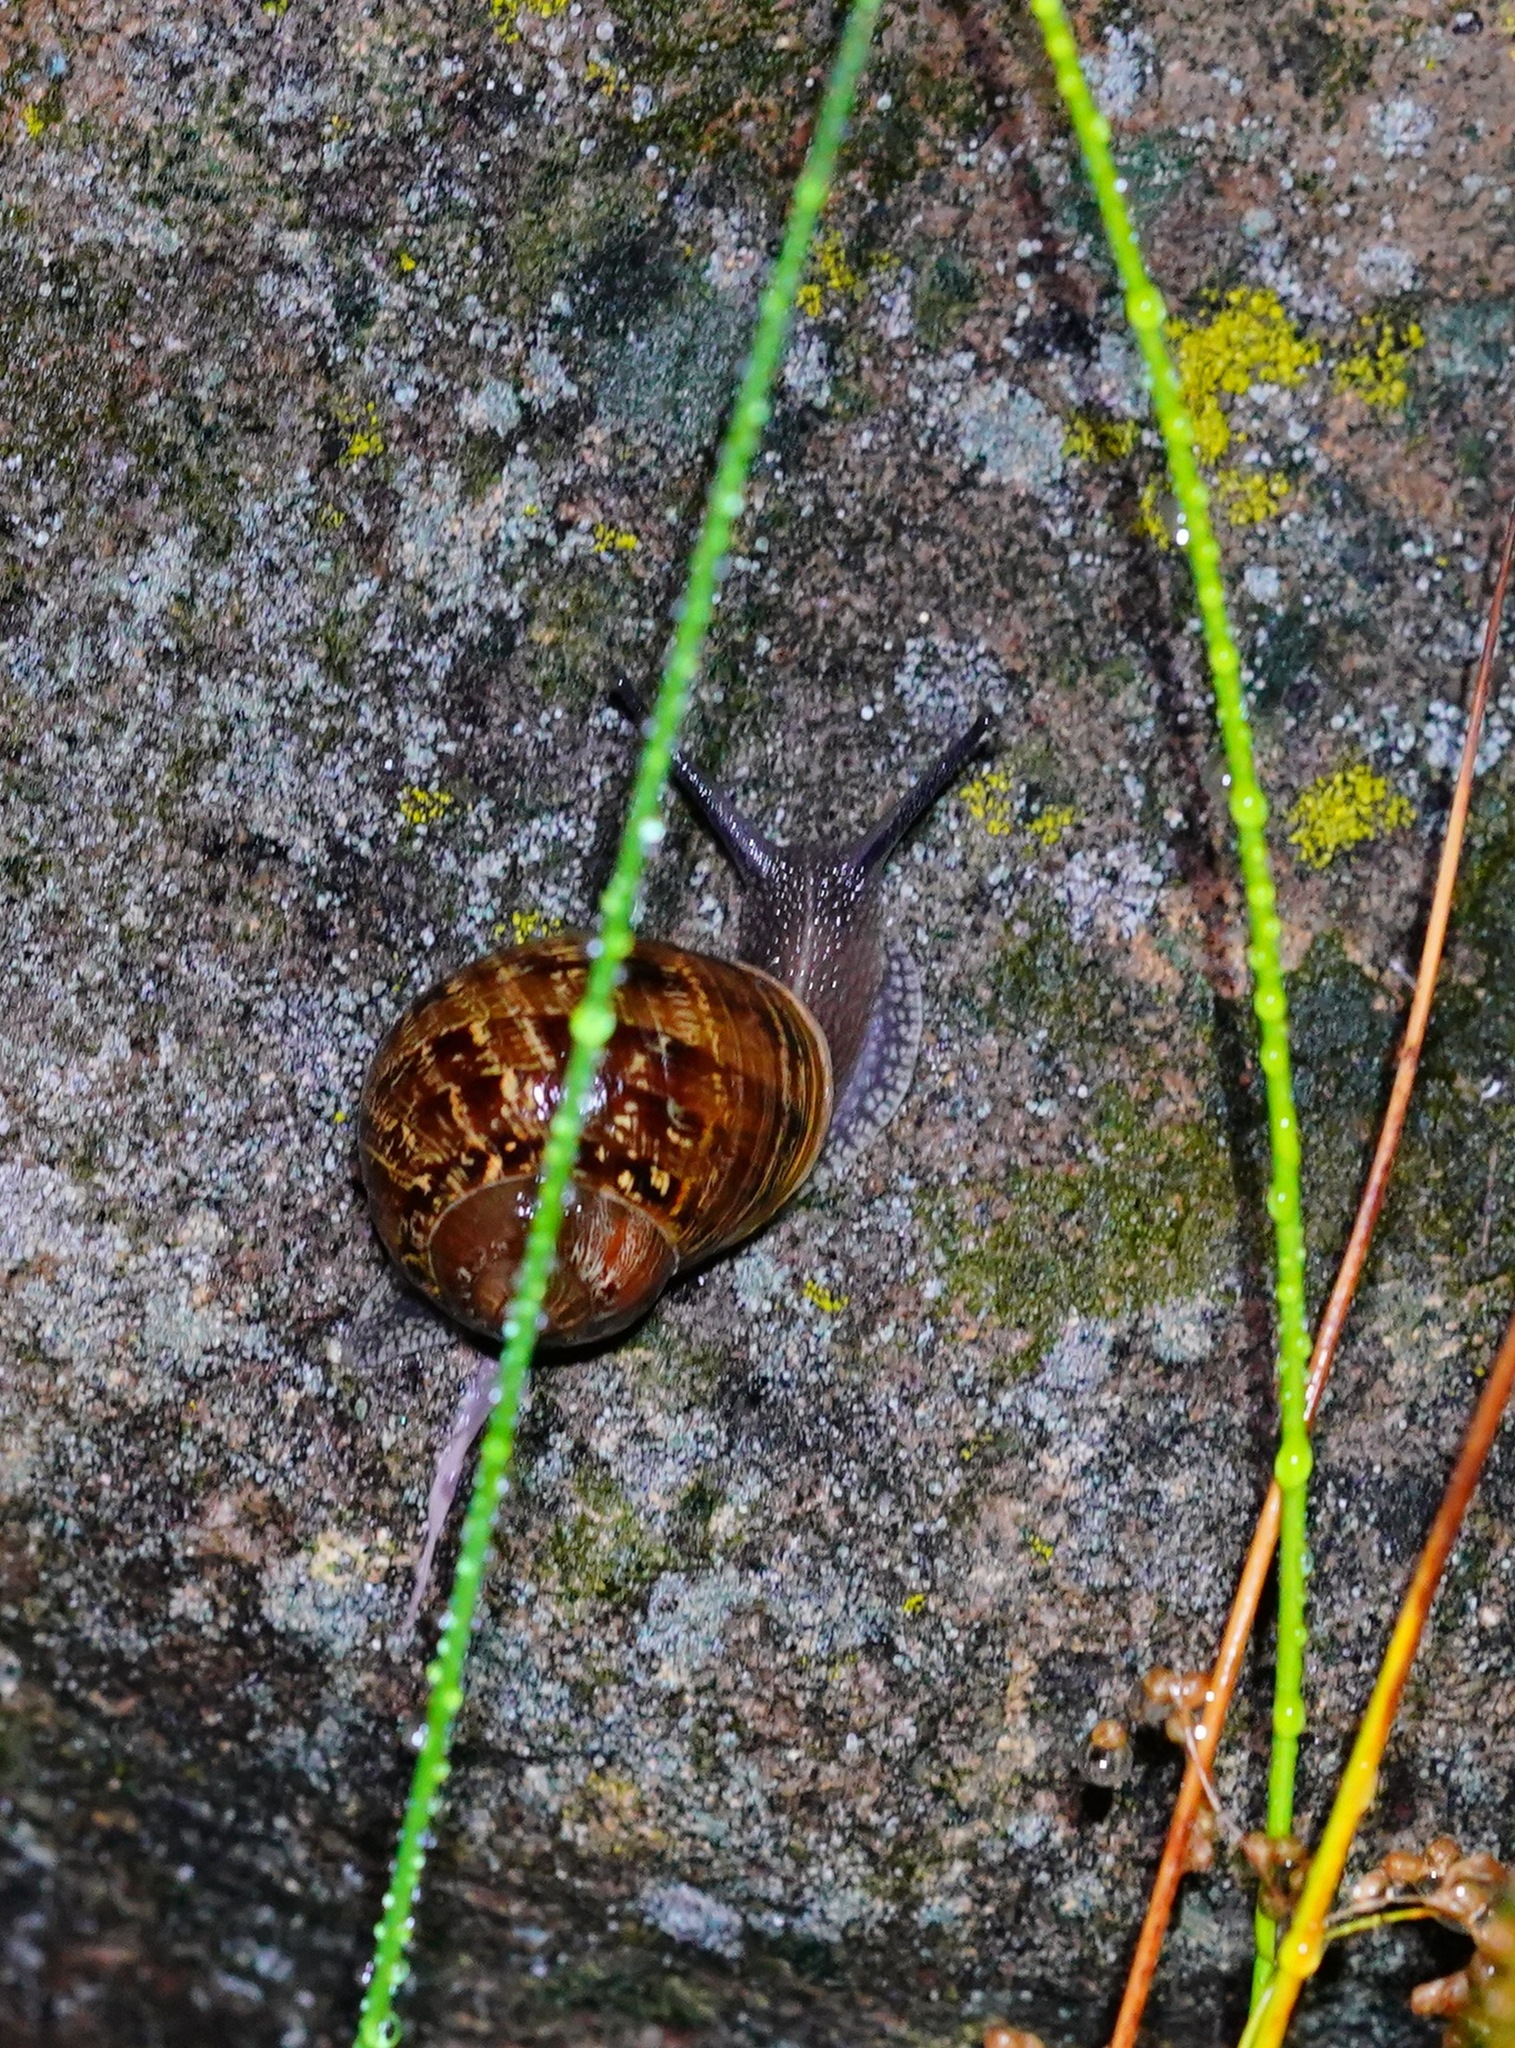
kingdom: Animalia
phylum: Mollusca
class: Gastropoda
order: Stylommatophora
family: Helicidae
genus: Cornu
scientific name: Cornu aspersum
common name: Brown garden snail
